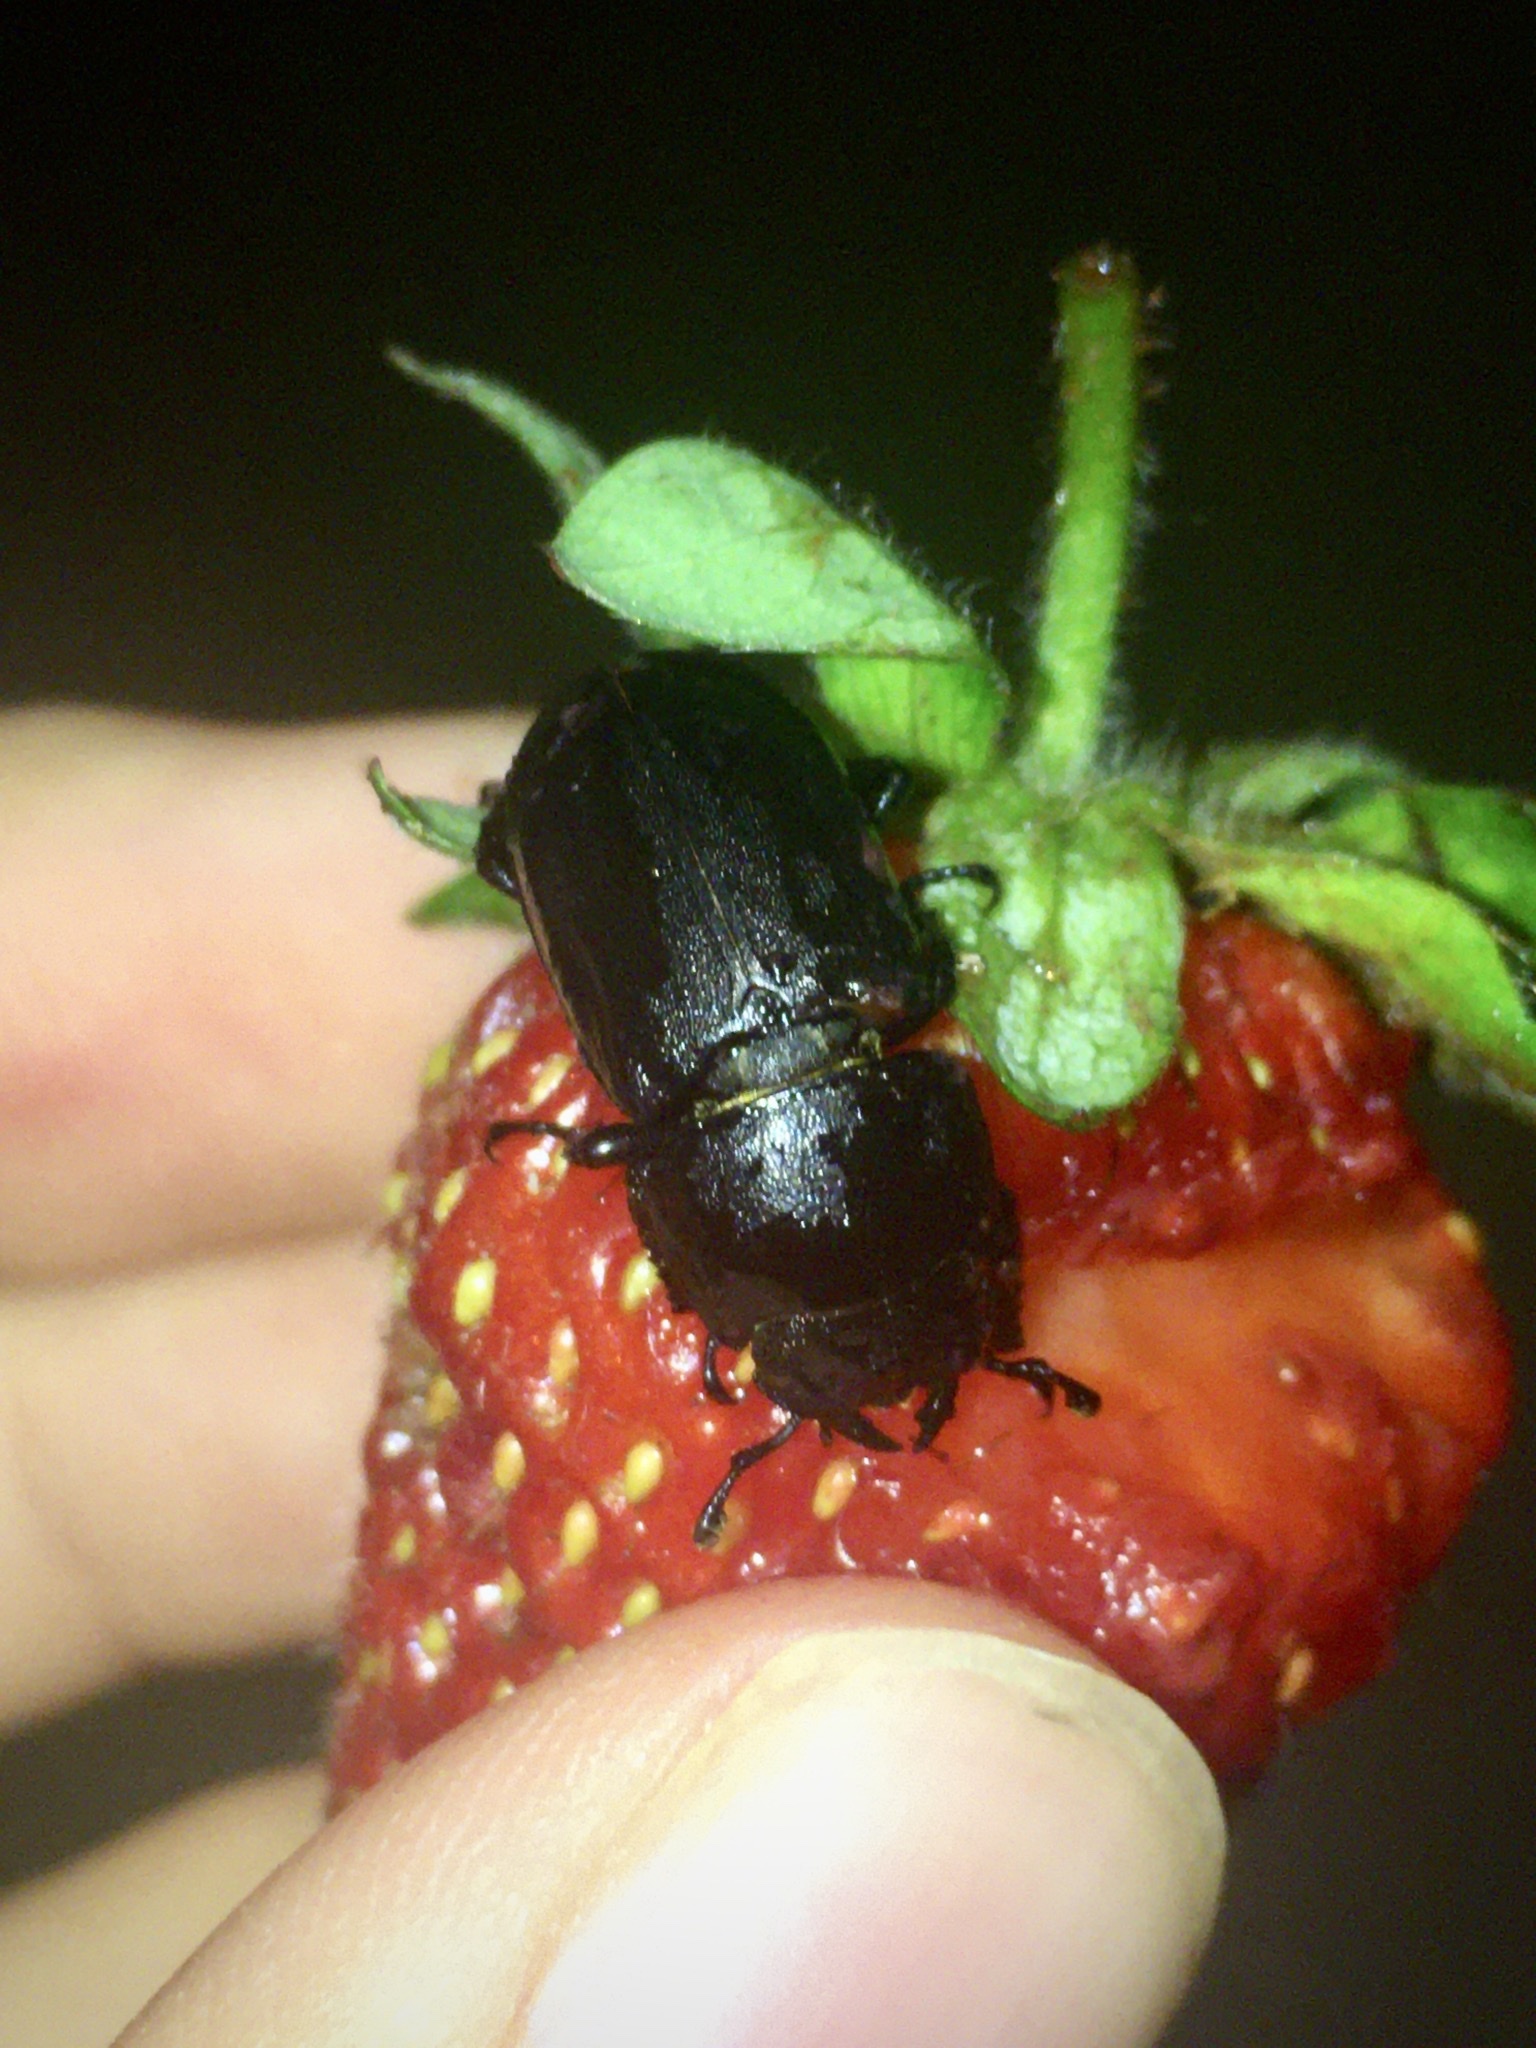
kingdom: Animalia
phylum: Arthropoda
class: Insecta
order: Coleoptera
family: Lucanidae
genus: Dorcus
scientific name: Dorcus parallelipipedus
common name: Lesser stag beetle
